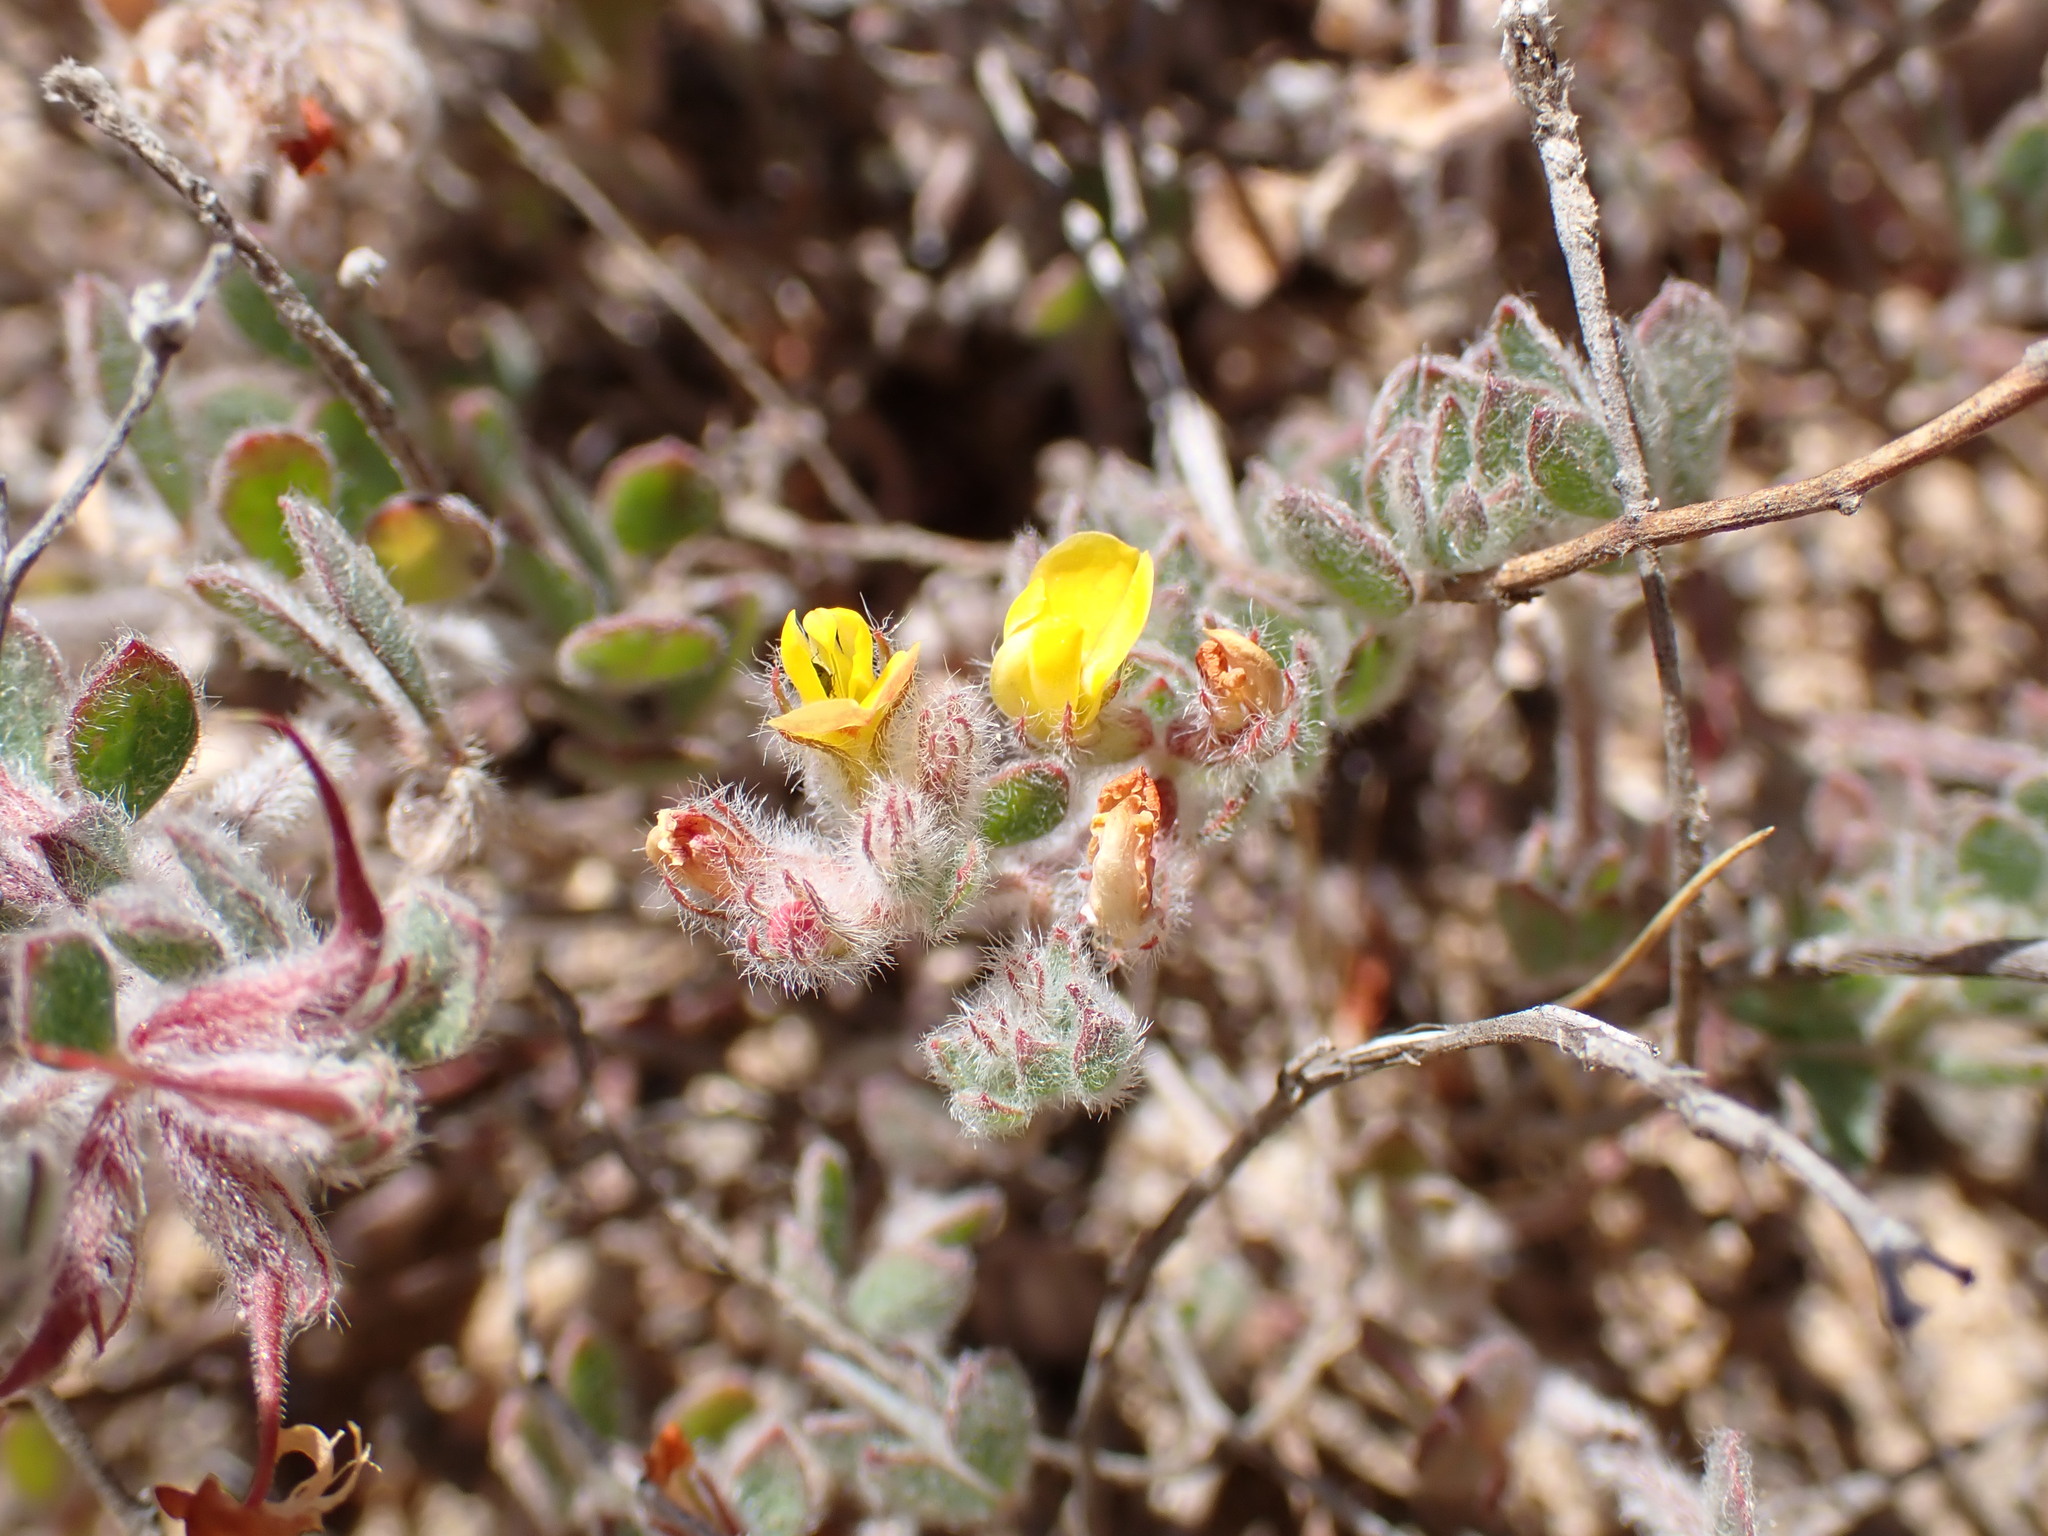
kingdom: Plantae
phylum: Tracheophyta
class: Magnoliopsida
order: Fabales
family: Fabaceae
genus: Acmispon
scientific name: Acmispon tomentosus
